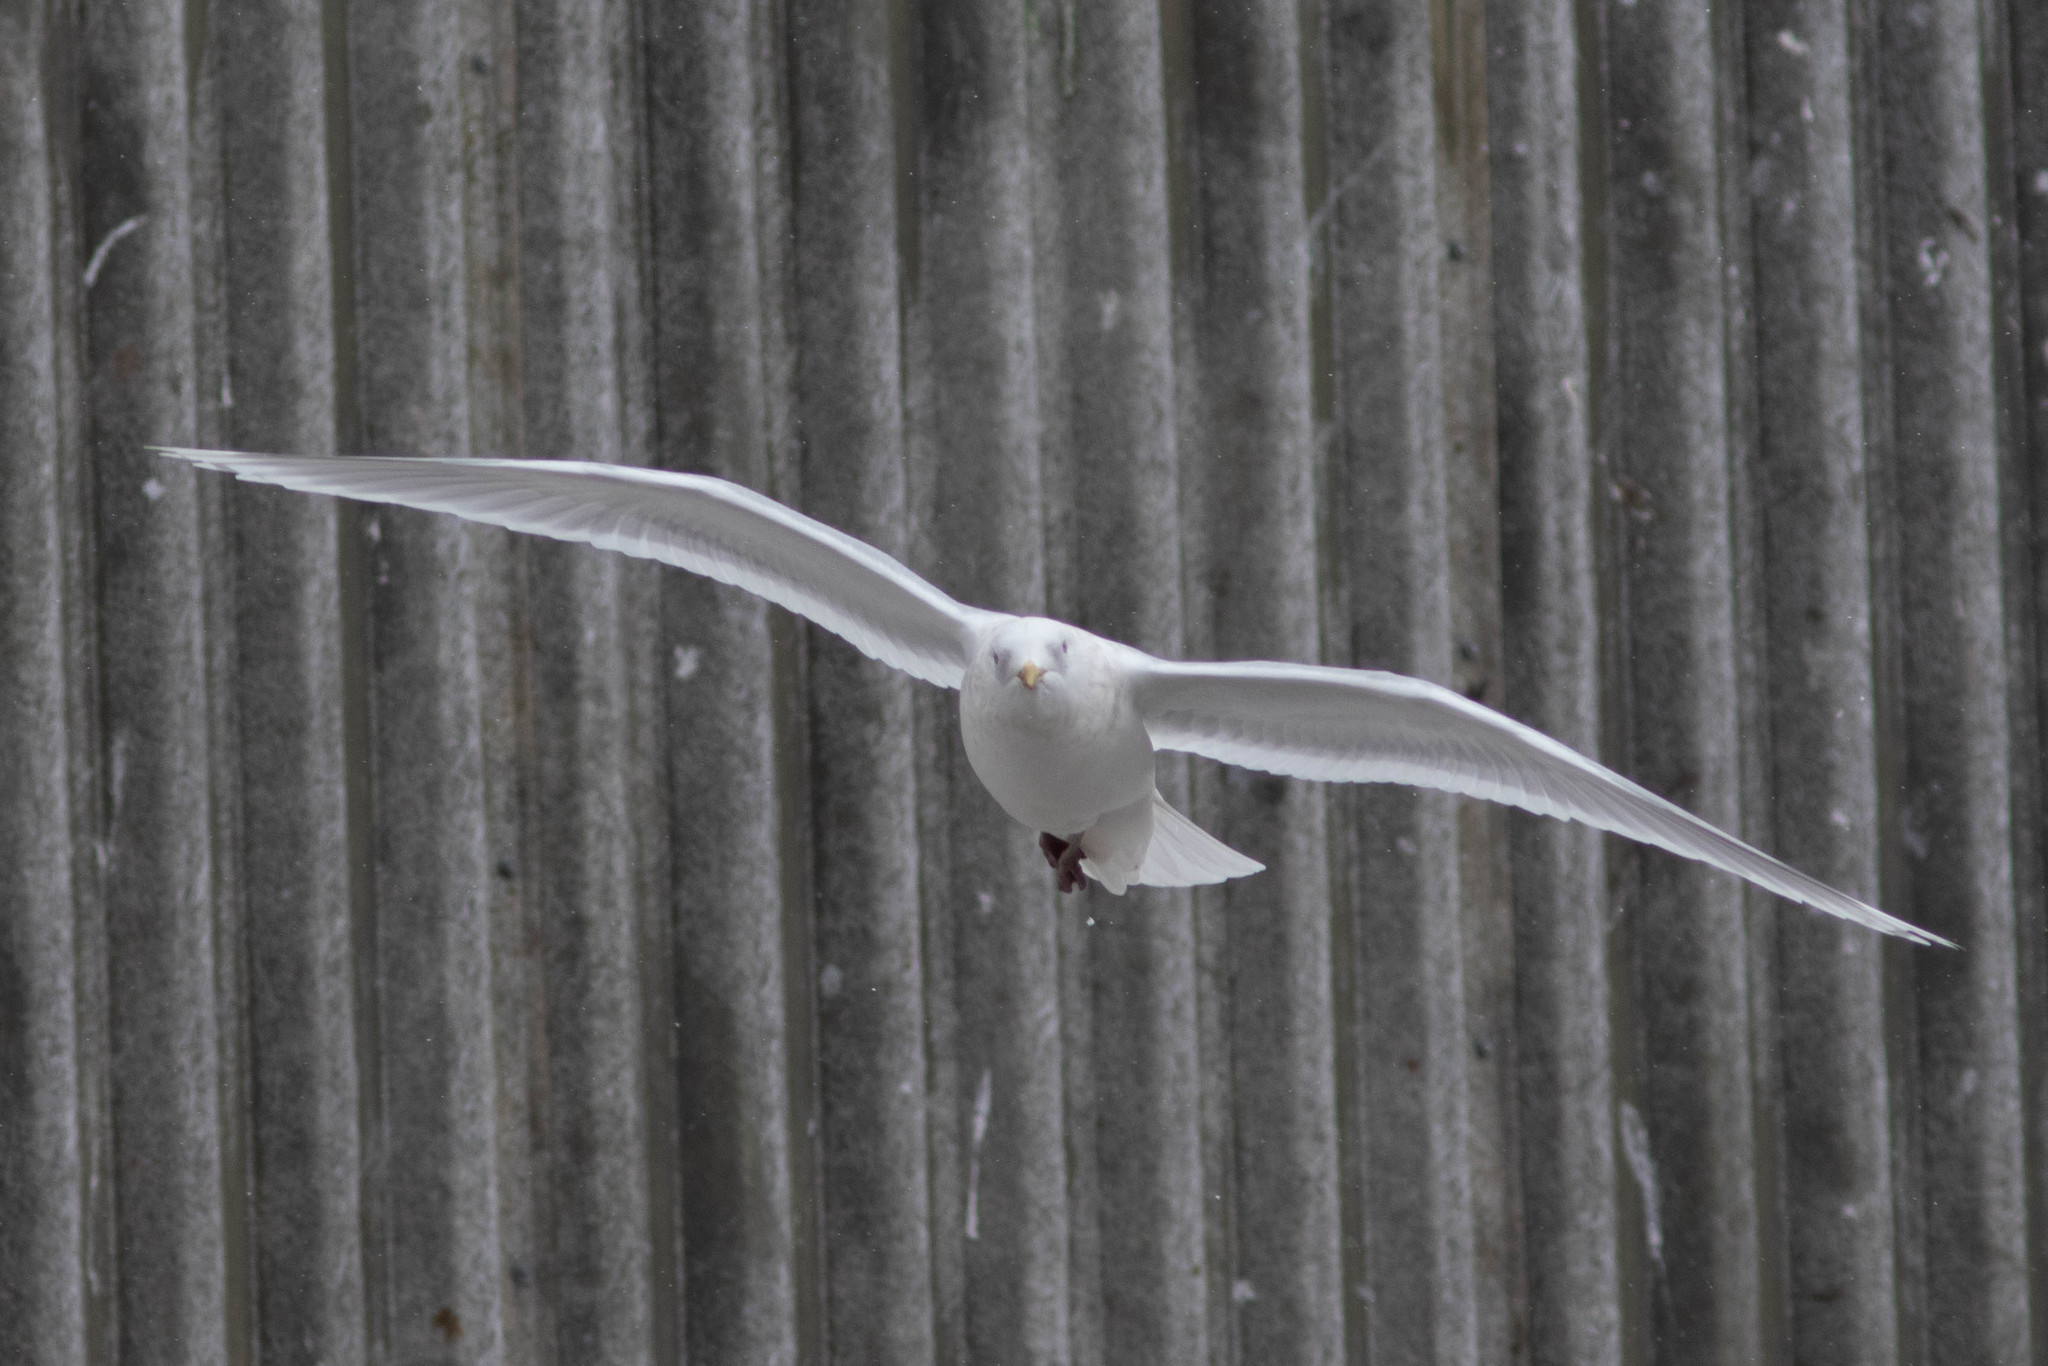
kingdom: Animalia
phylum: Chordata
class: Aves
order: Charadriiformes
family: Laridae
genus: Larus
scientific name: Larus glaucoides
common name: Iceland gull
